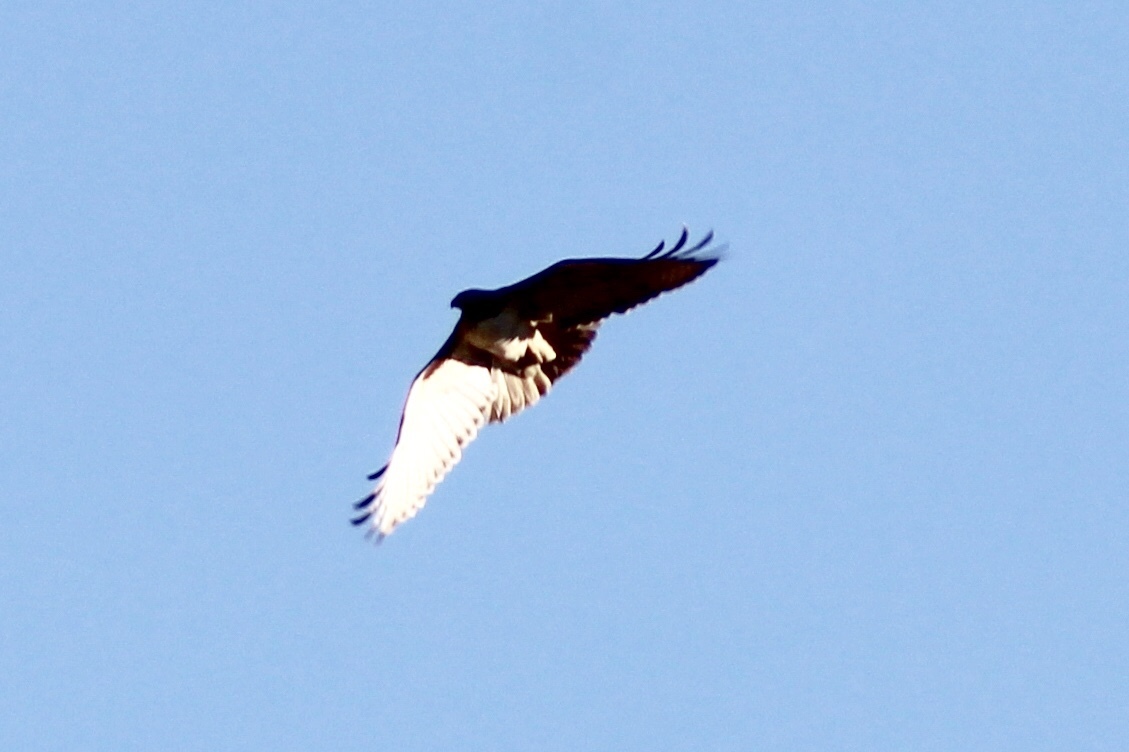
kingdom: Animalia
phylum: Chordata
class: Aves
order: Accipitriformes
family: Accipitridae
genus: Buteo
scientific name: Buteo jamaicensis
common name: Red-tailed hawk
